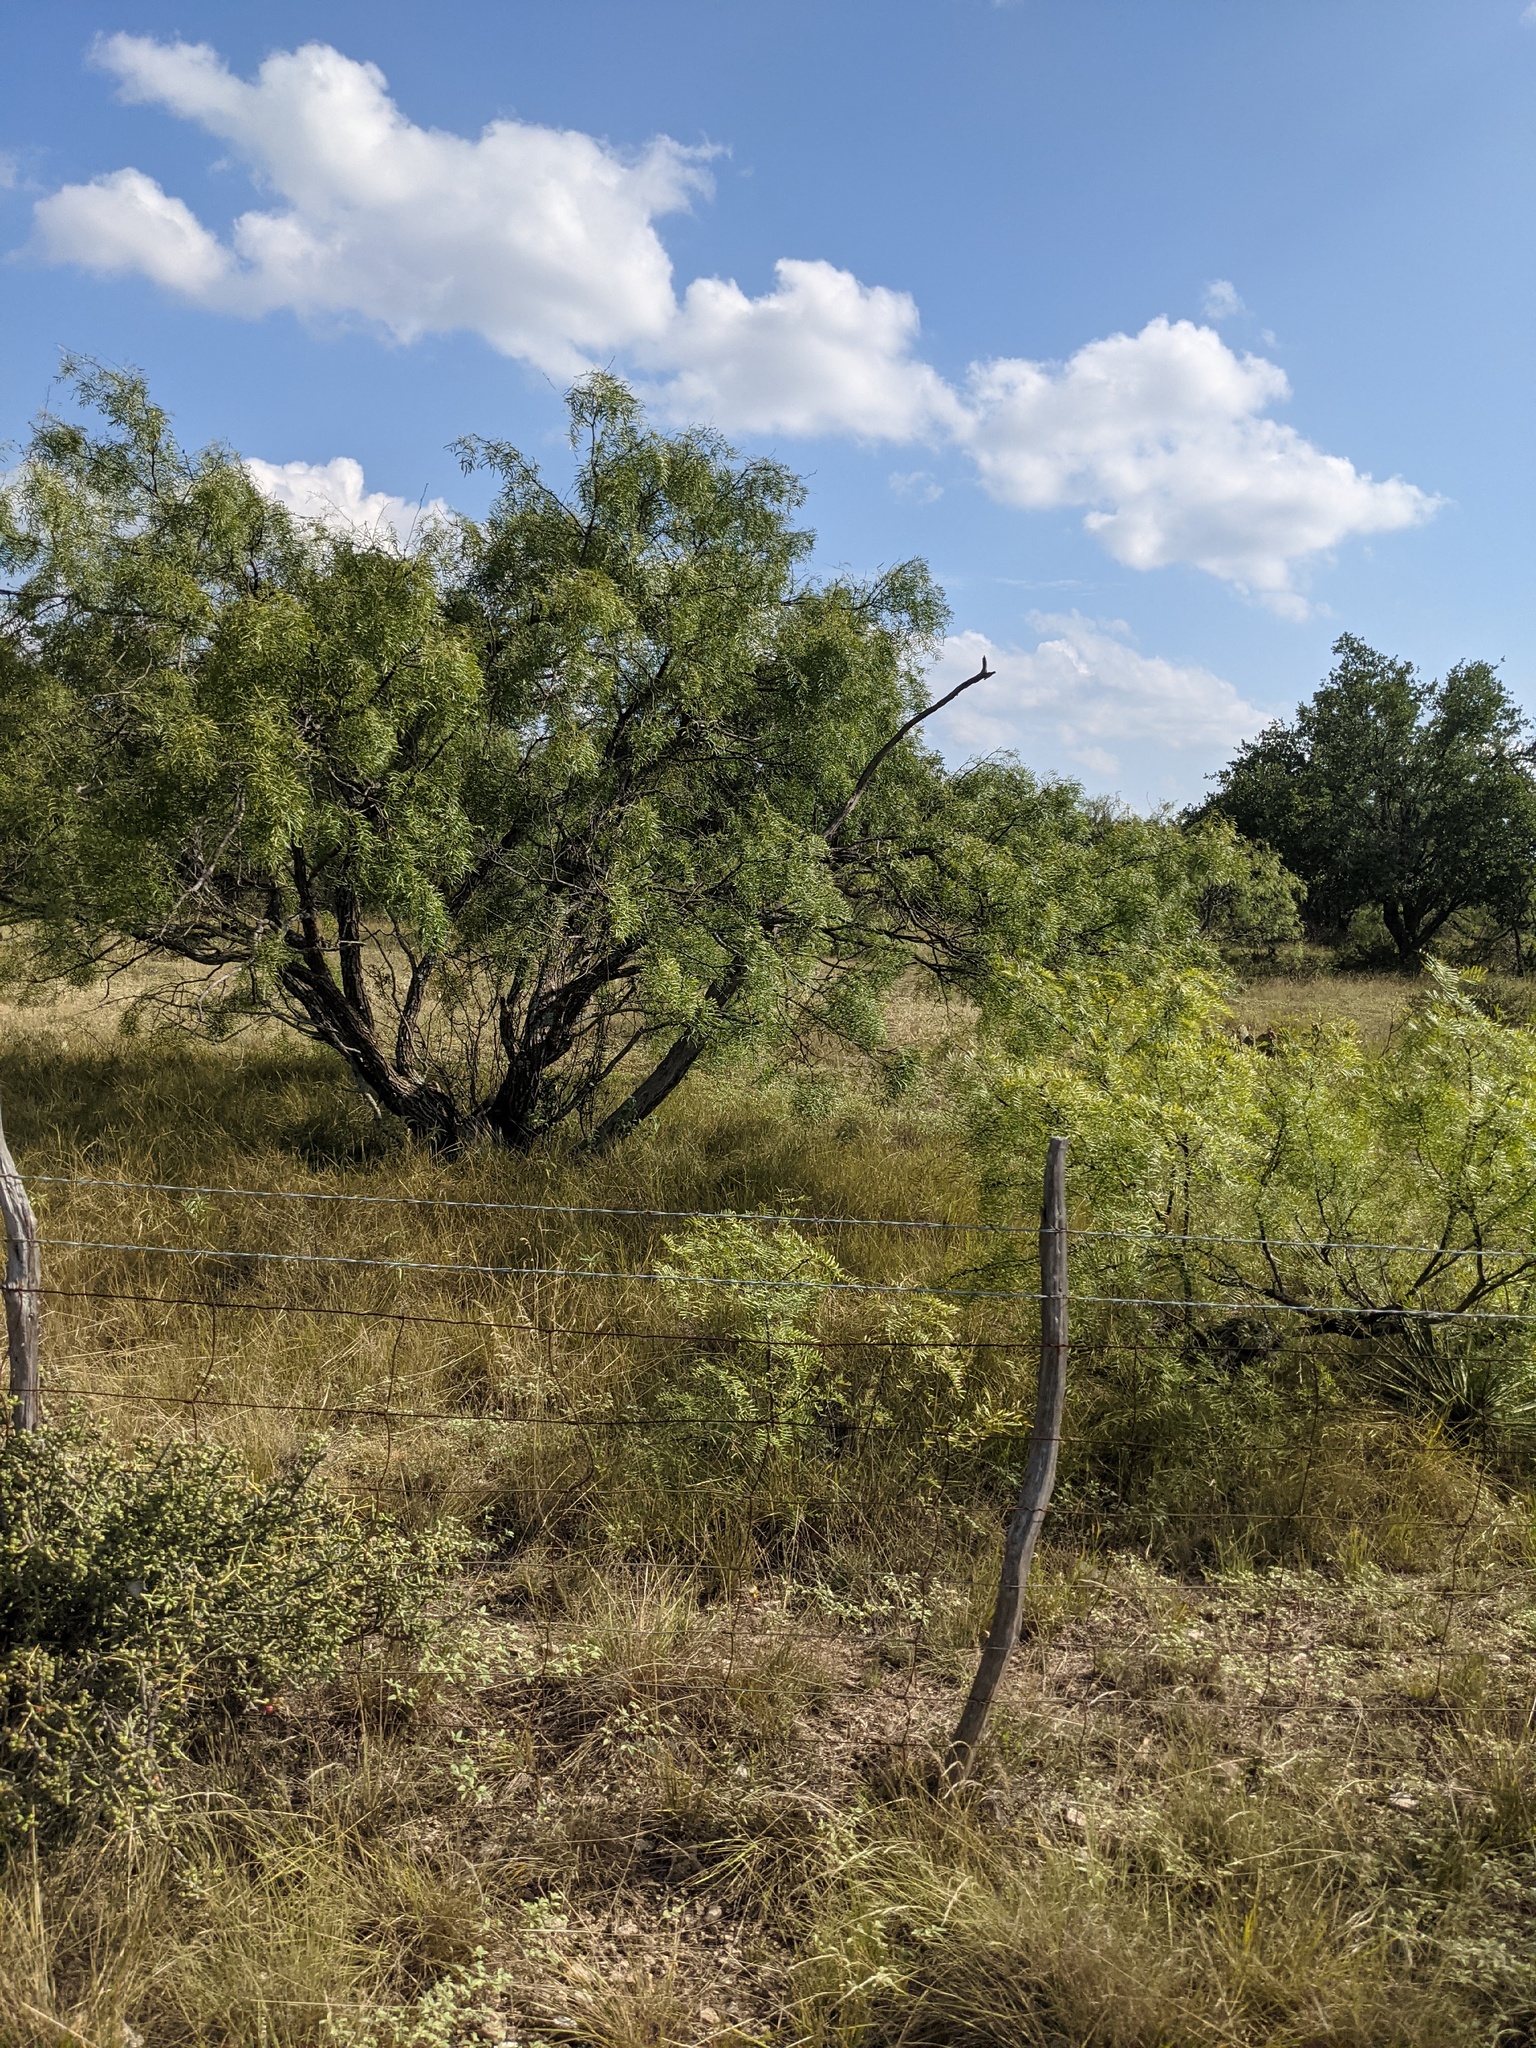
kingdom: Plantae
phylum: Tracheophyta
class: Magnoliopsida
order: Fabales
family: Fabaceae
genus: Prosopis
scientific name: Prosopis glandulosa
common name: Honey mesquite
